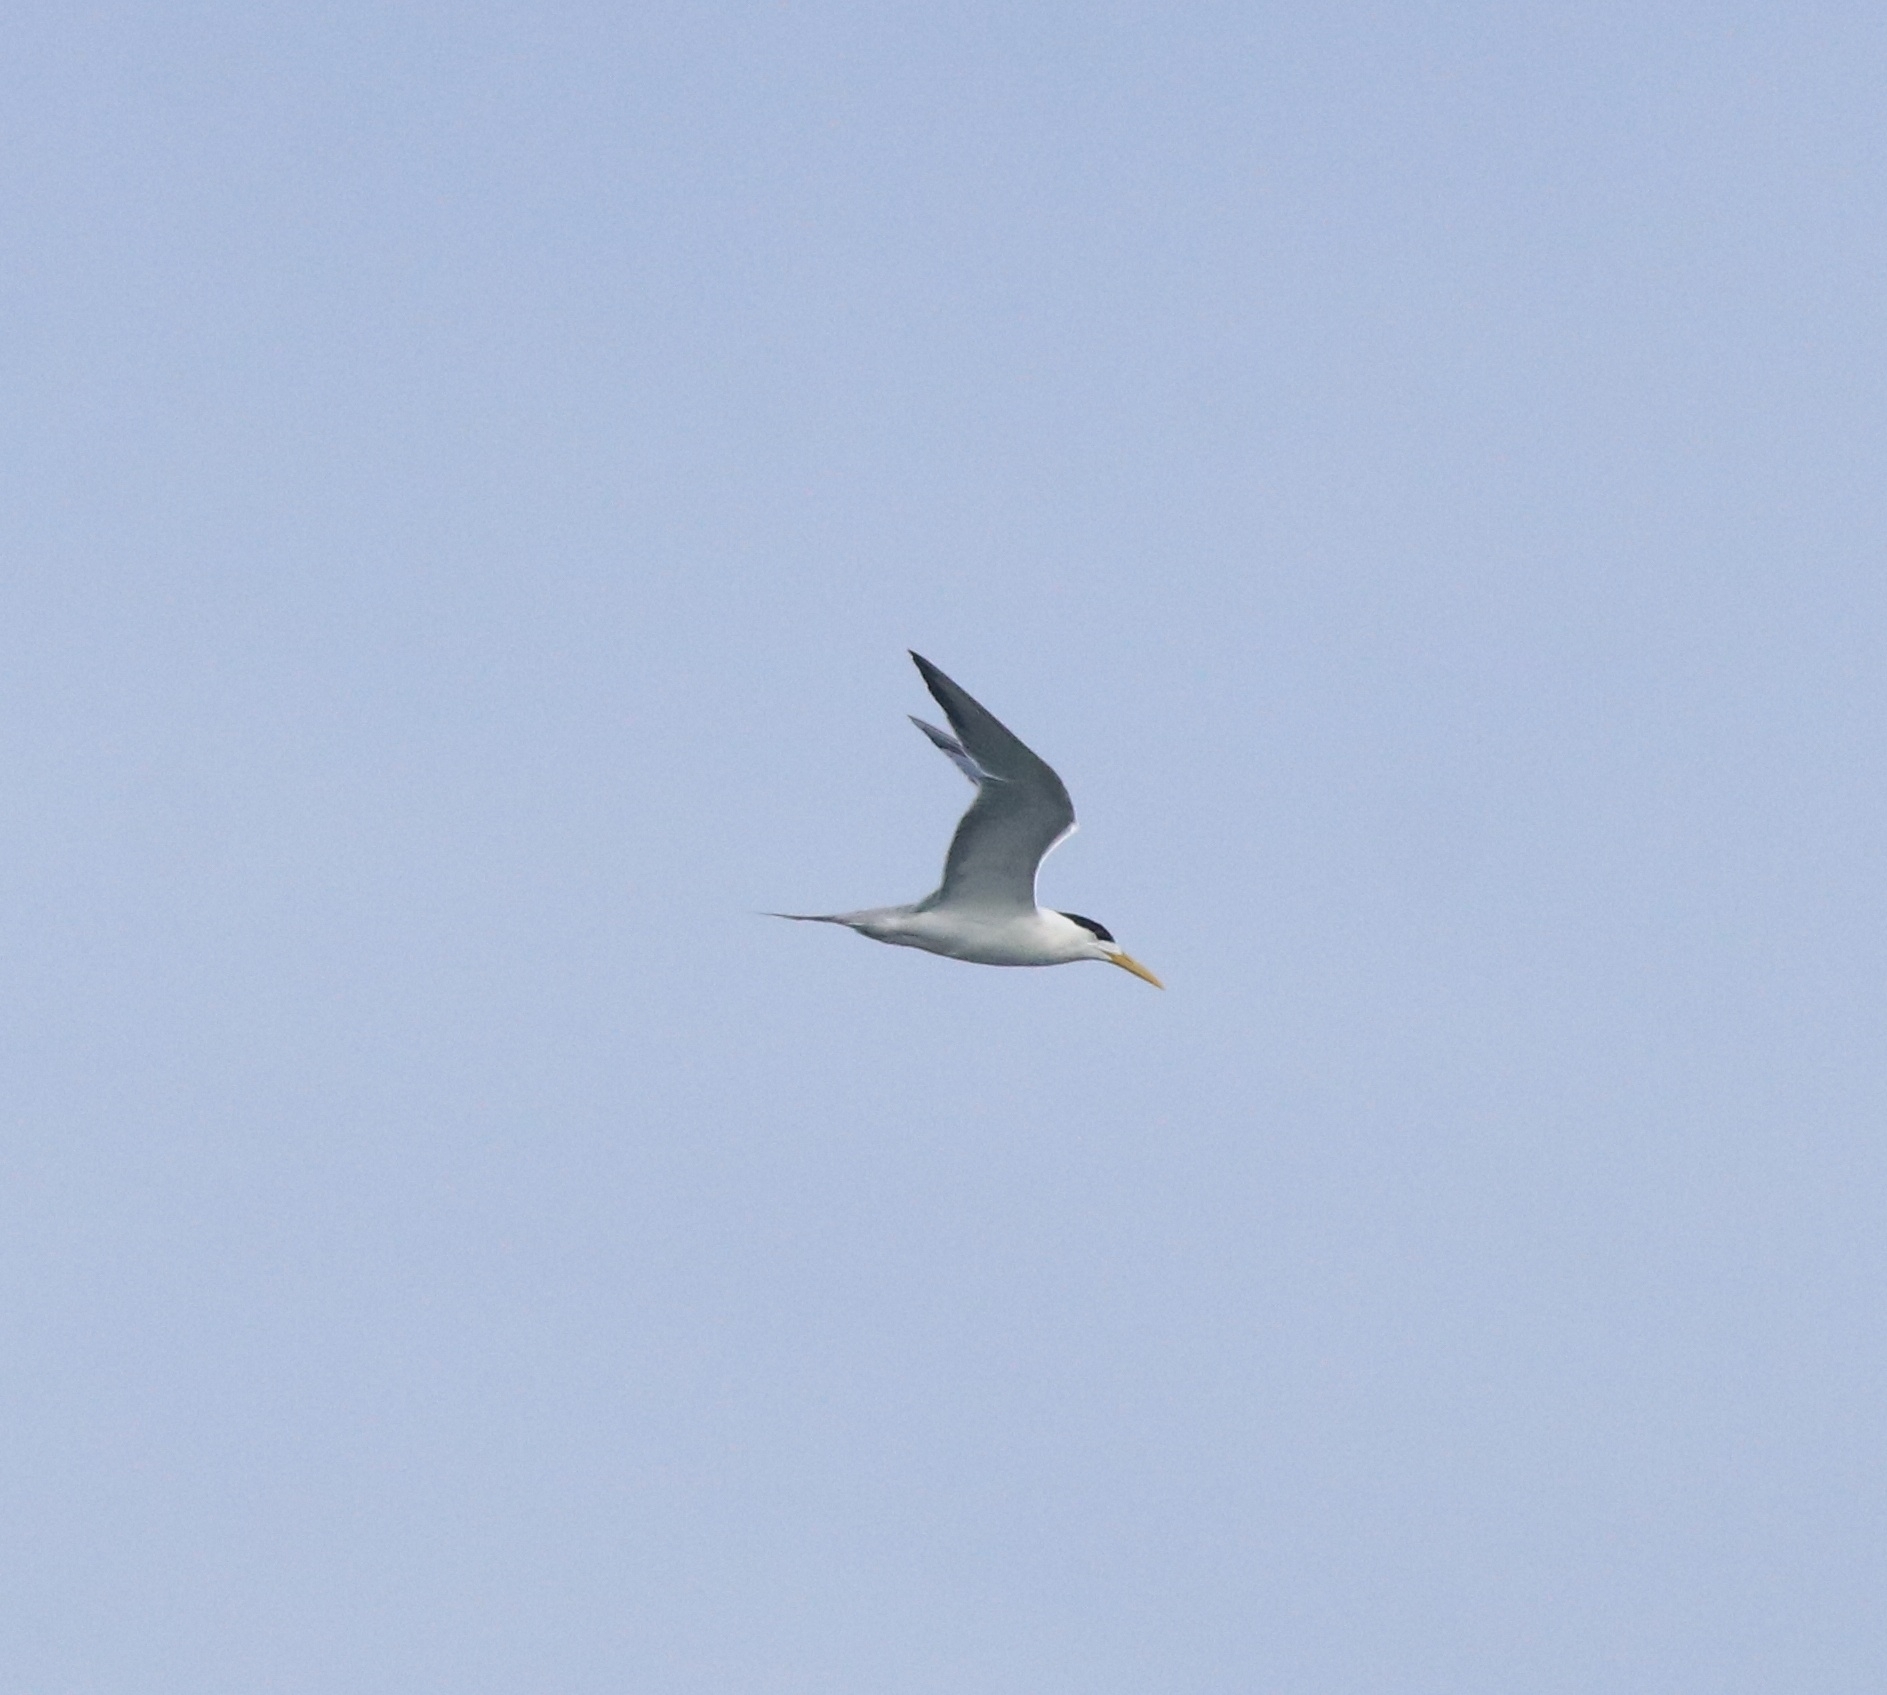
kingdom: Animalia
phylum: Chordata
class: Aves
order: Charadriiformes
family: Laridae
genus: Thalasseus
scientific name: Thalasseus bergii
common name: Greater crested tern
